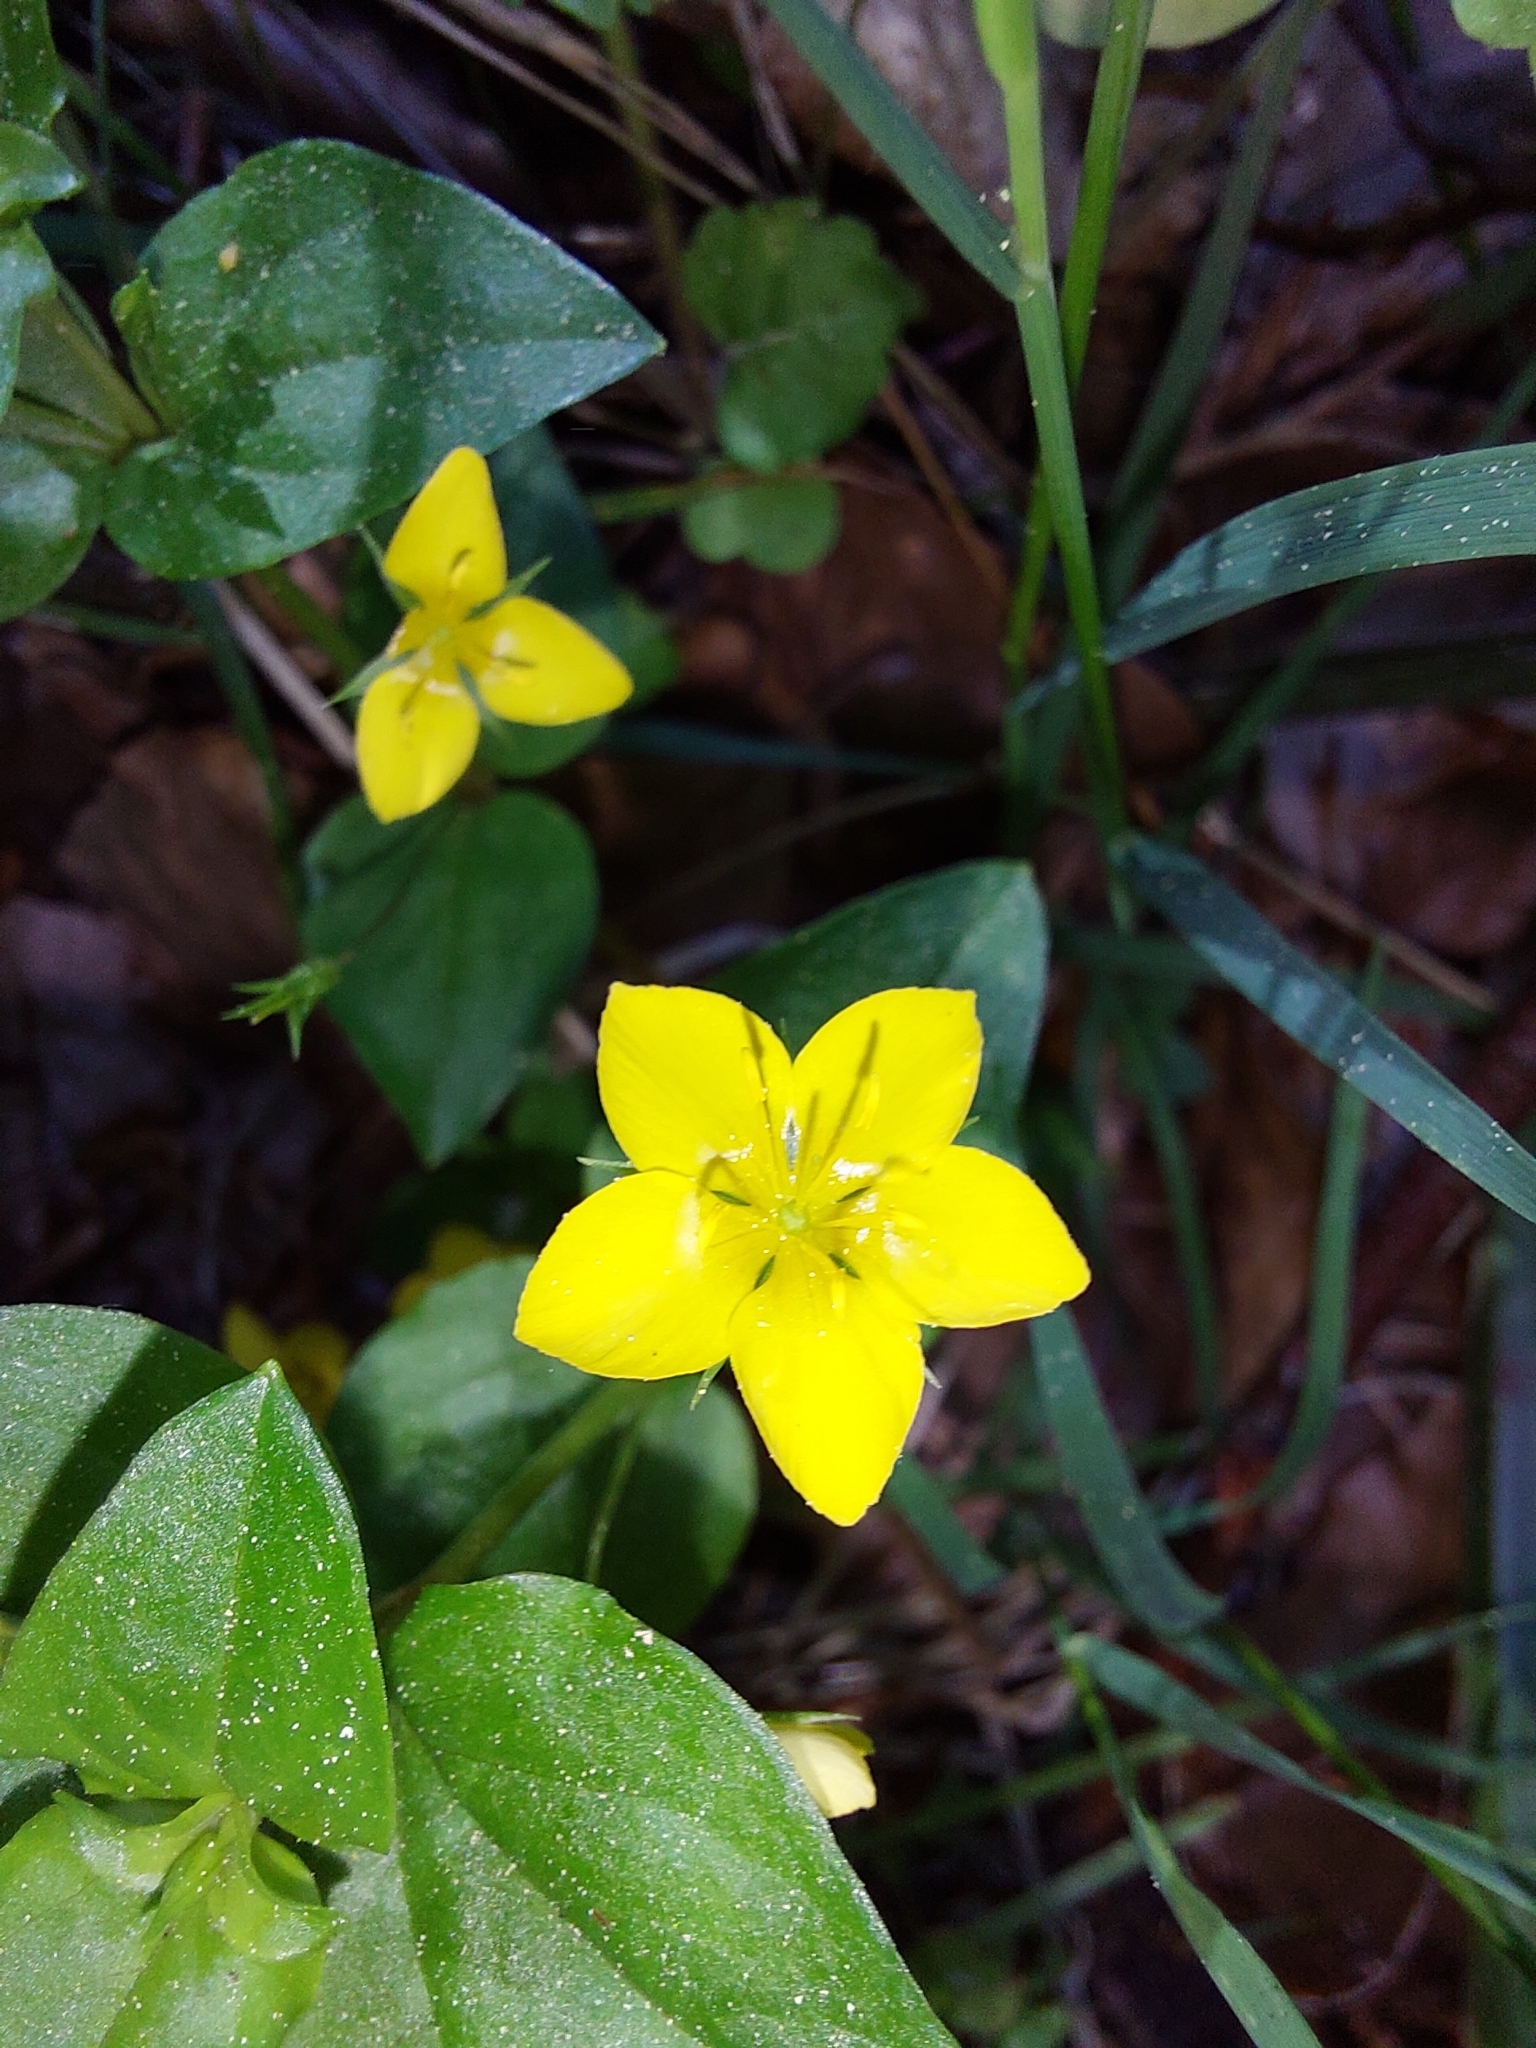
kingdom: Plantae
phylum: Tracheophyta
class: Magnoliopsida
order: Ericales
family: Primulaceae
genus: Lysimachia
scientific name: Lysimachia nemorum
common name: Yellow pimpernel
